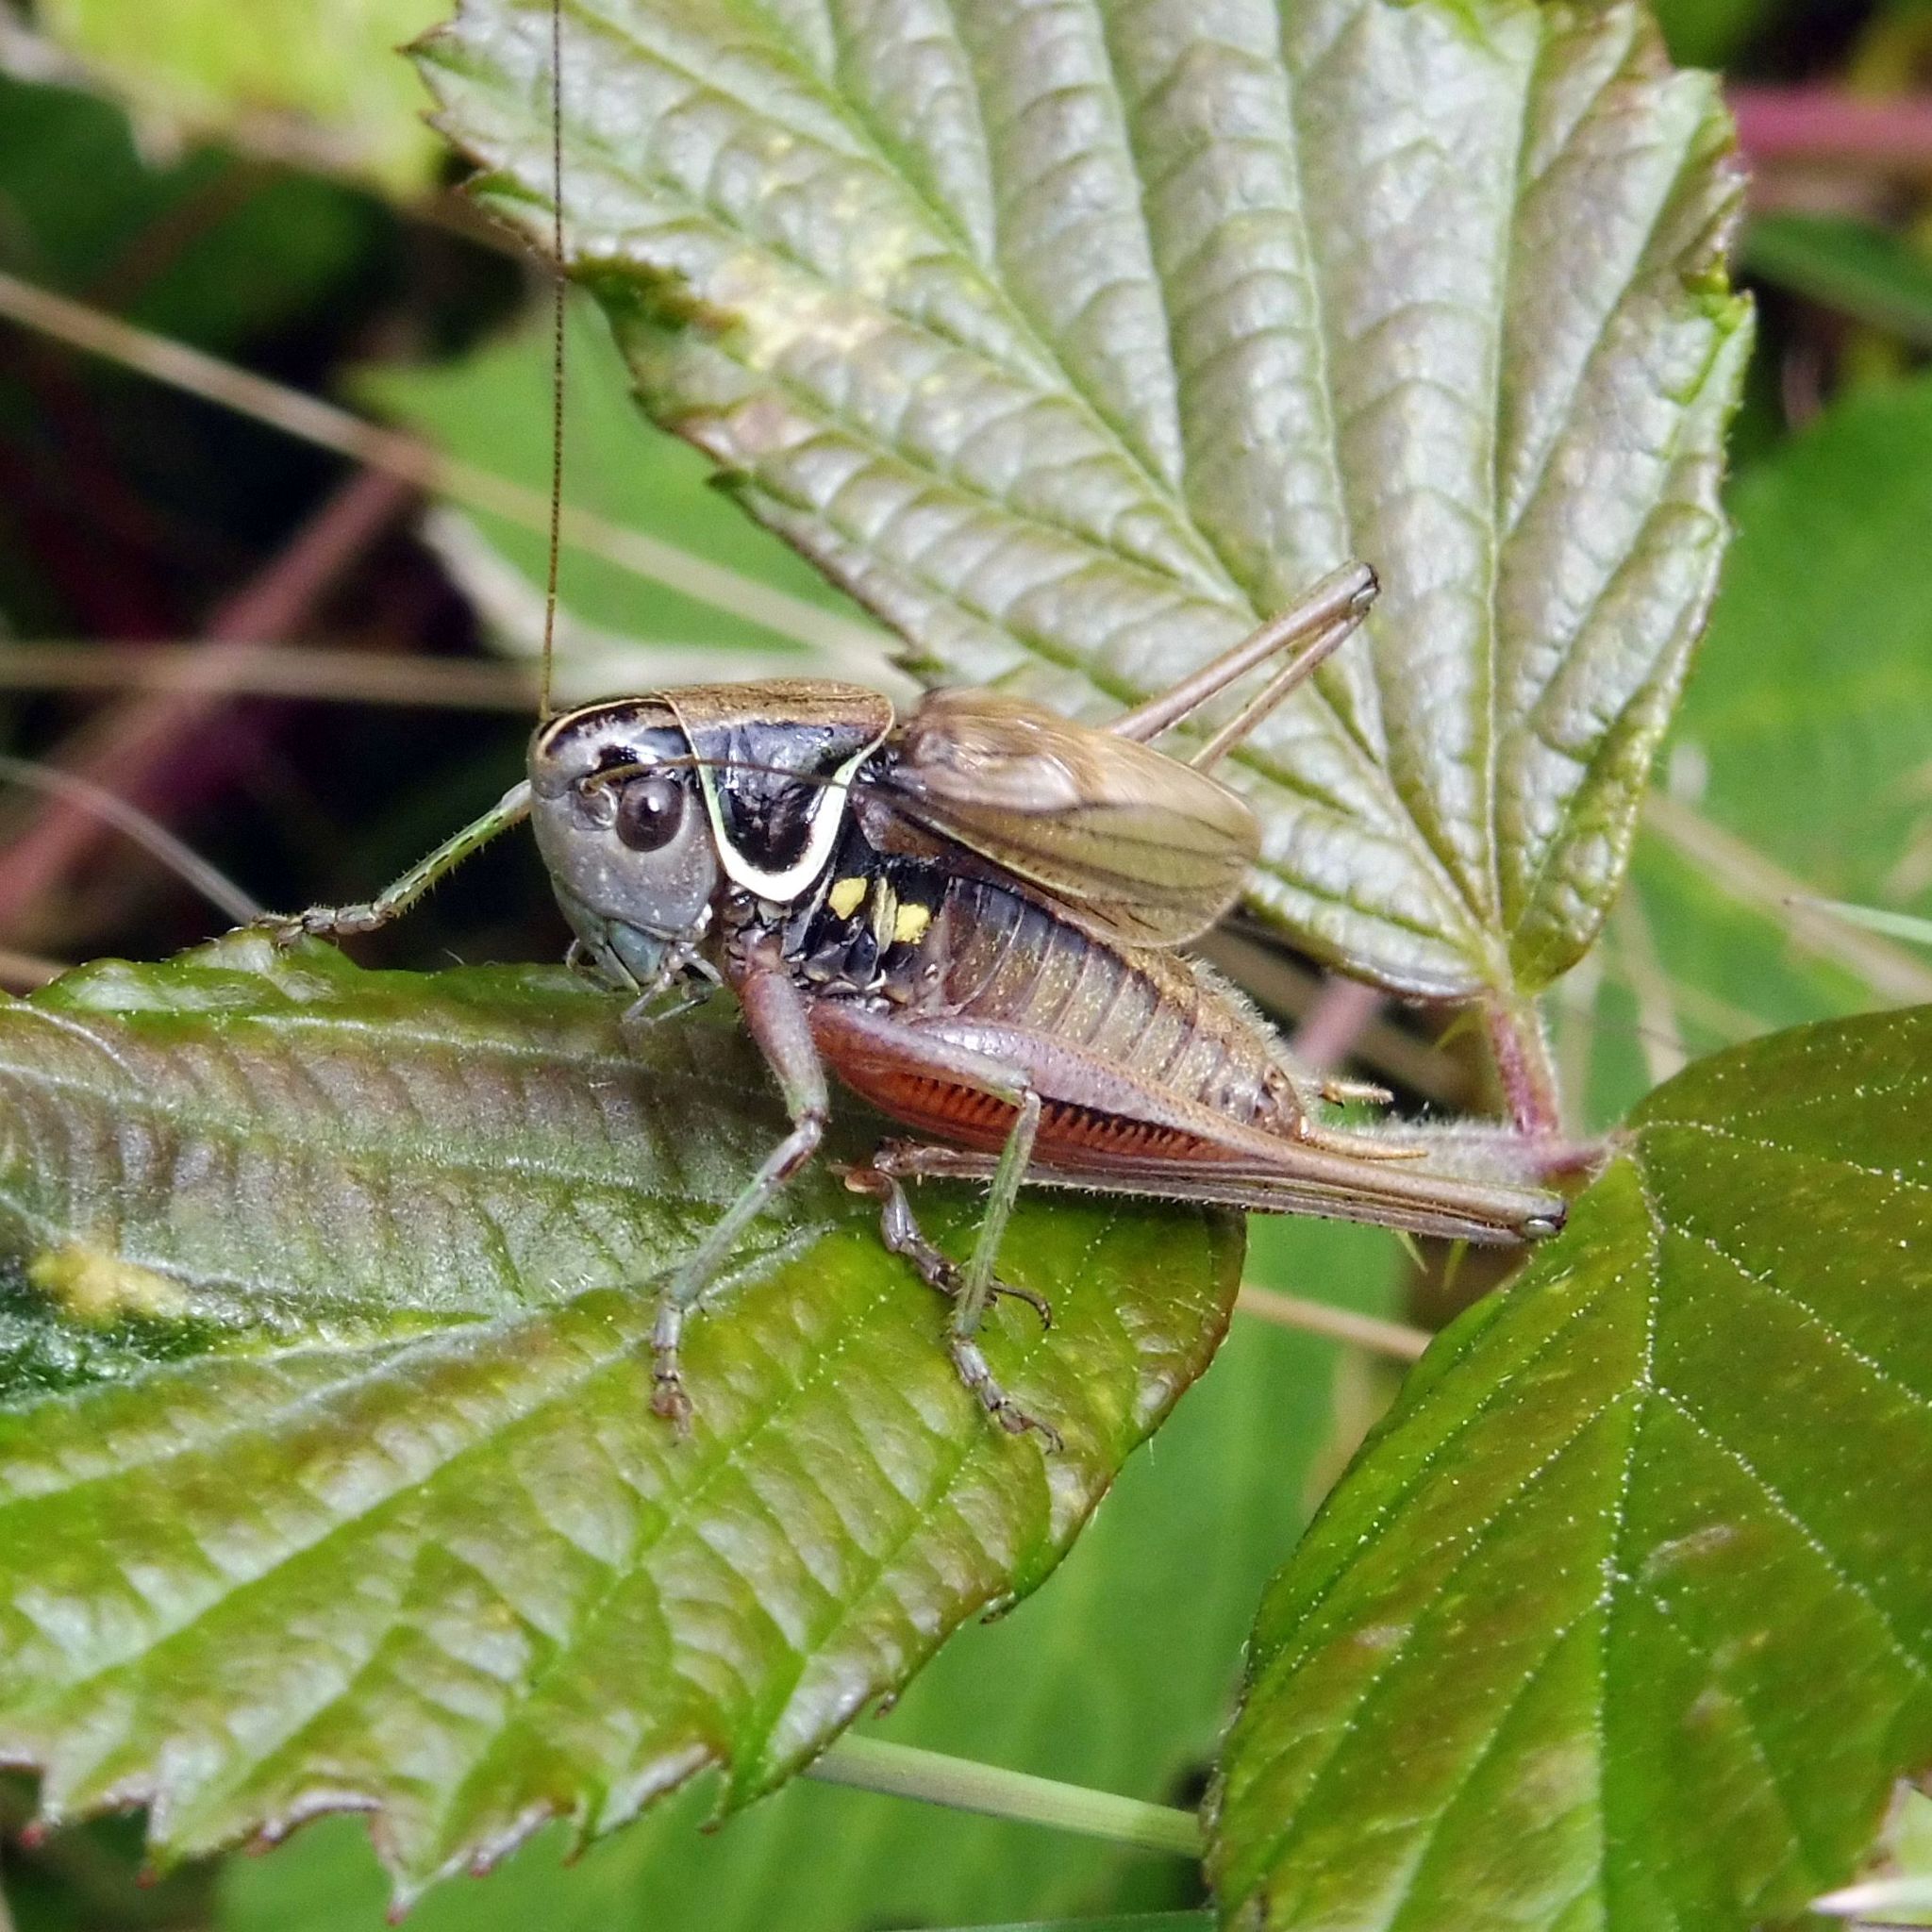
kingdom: Animalia
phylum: Arthropoda
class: Insecta
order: Orthoptera
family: Tettigoniidae
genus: Roeseliana
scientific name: Roeseliana roeselii
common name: Roesel's bush cricket
